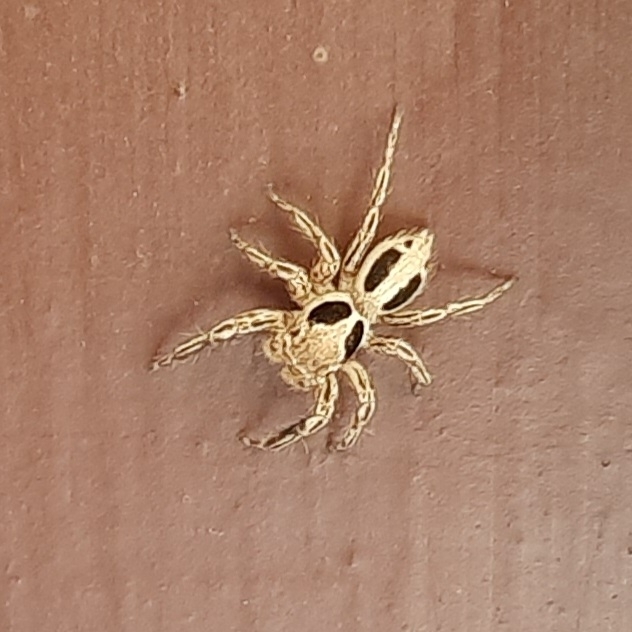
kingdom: Animalia
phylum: Arthropoda
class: Arachnida
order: Araneae
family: Salticidae
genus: Plexippus
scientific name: Plexippus petersi
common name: Jumping spider
